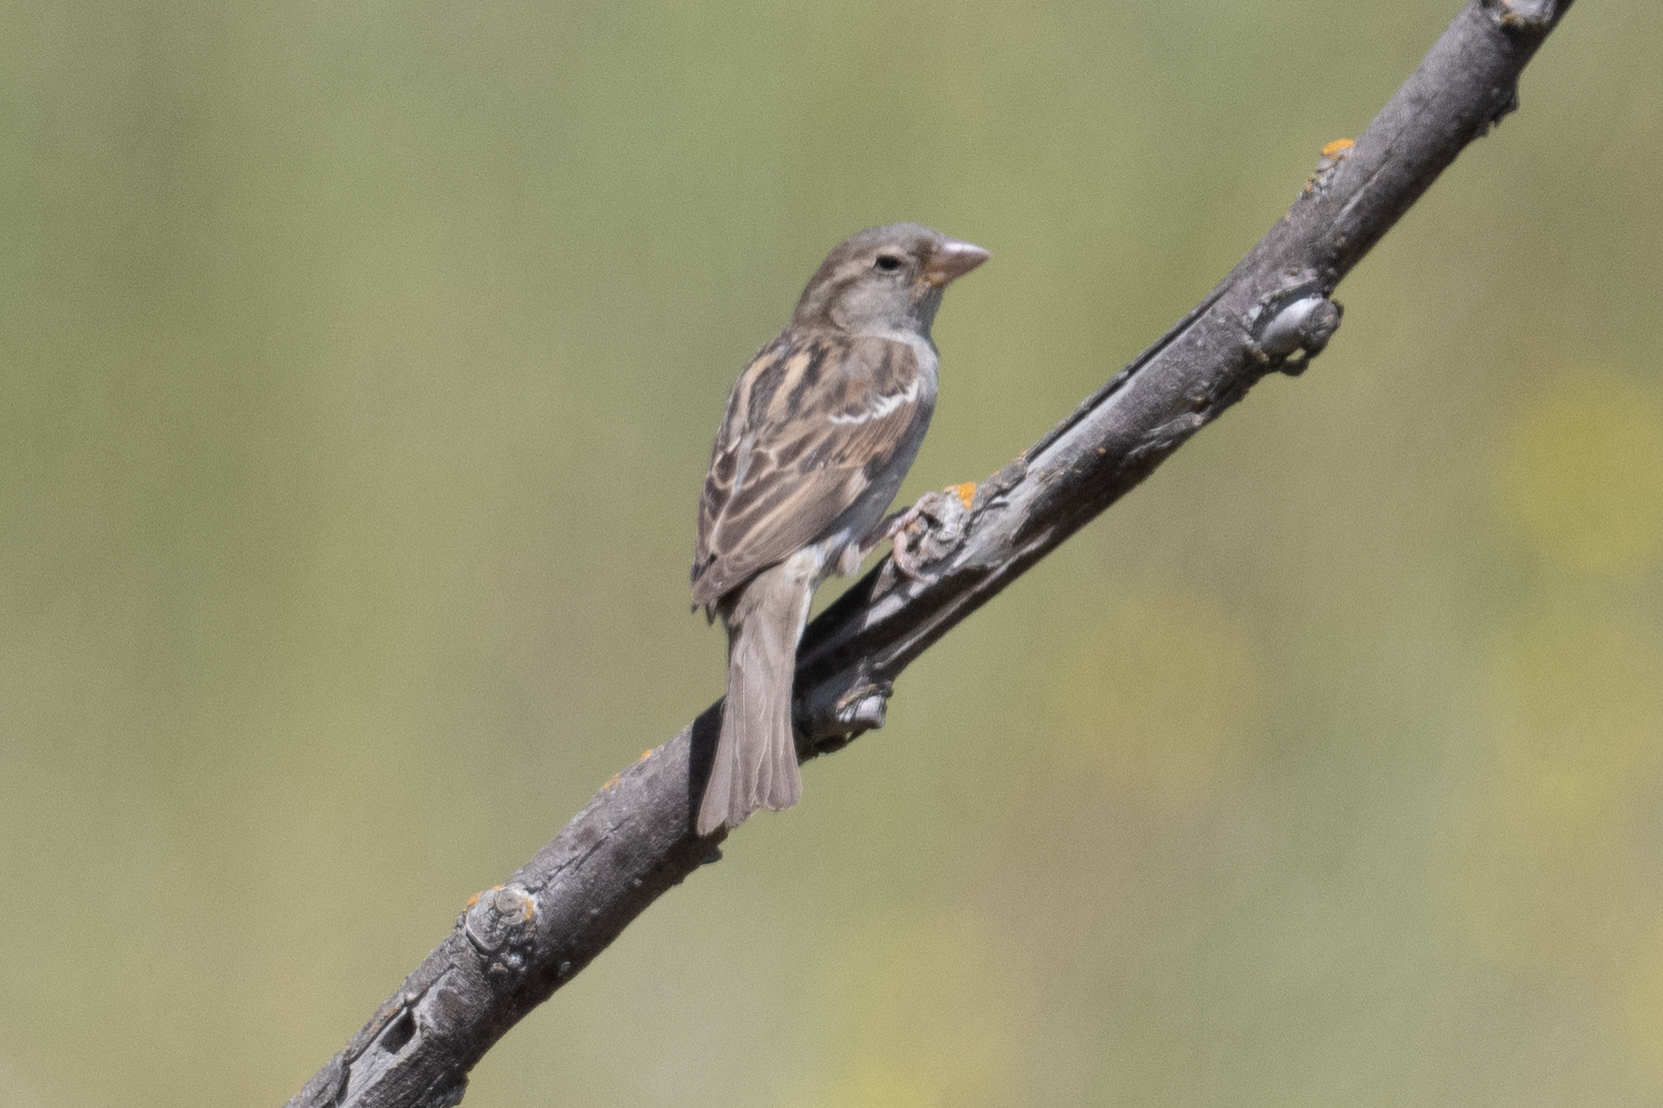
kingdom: Animalia
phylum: Chordata
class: Aves
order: Passeriformes
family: Passeridae
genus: Passer
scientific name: Passer domesticus
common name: House sparrow
